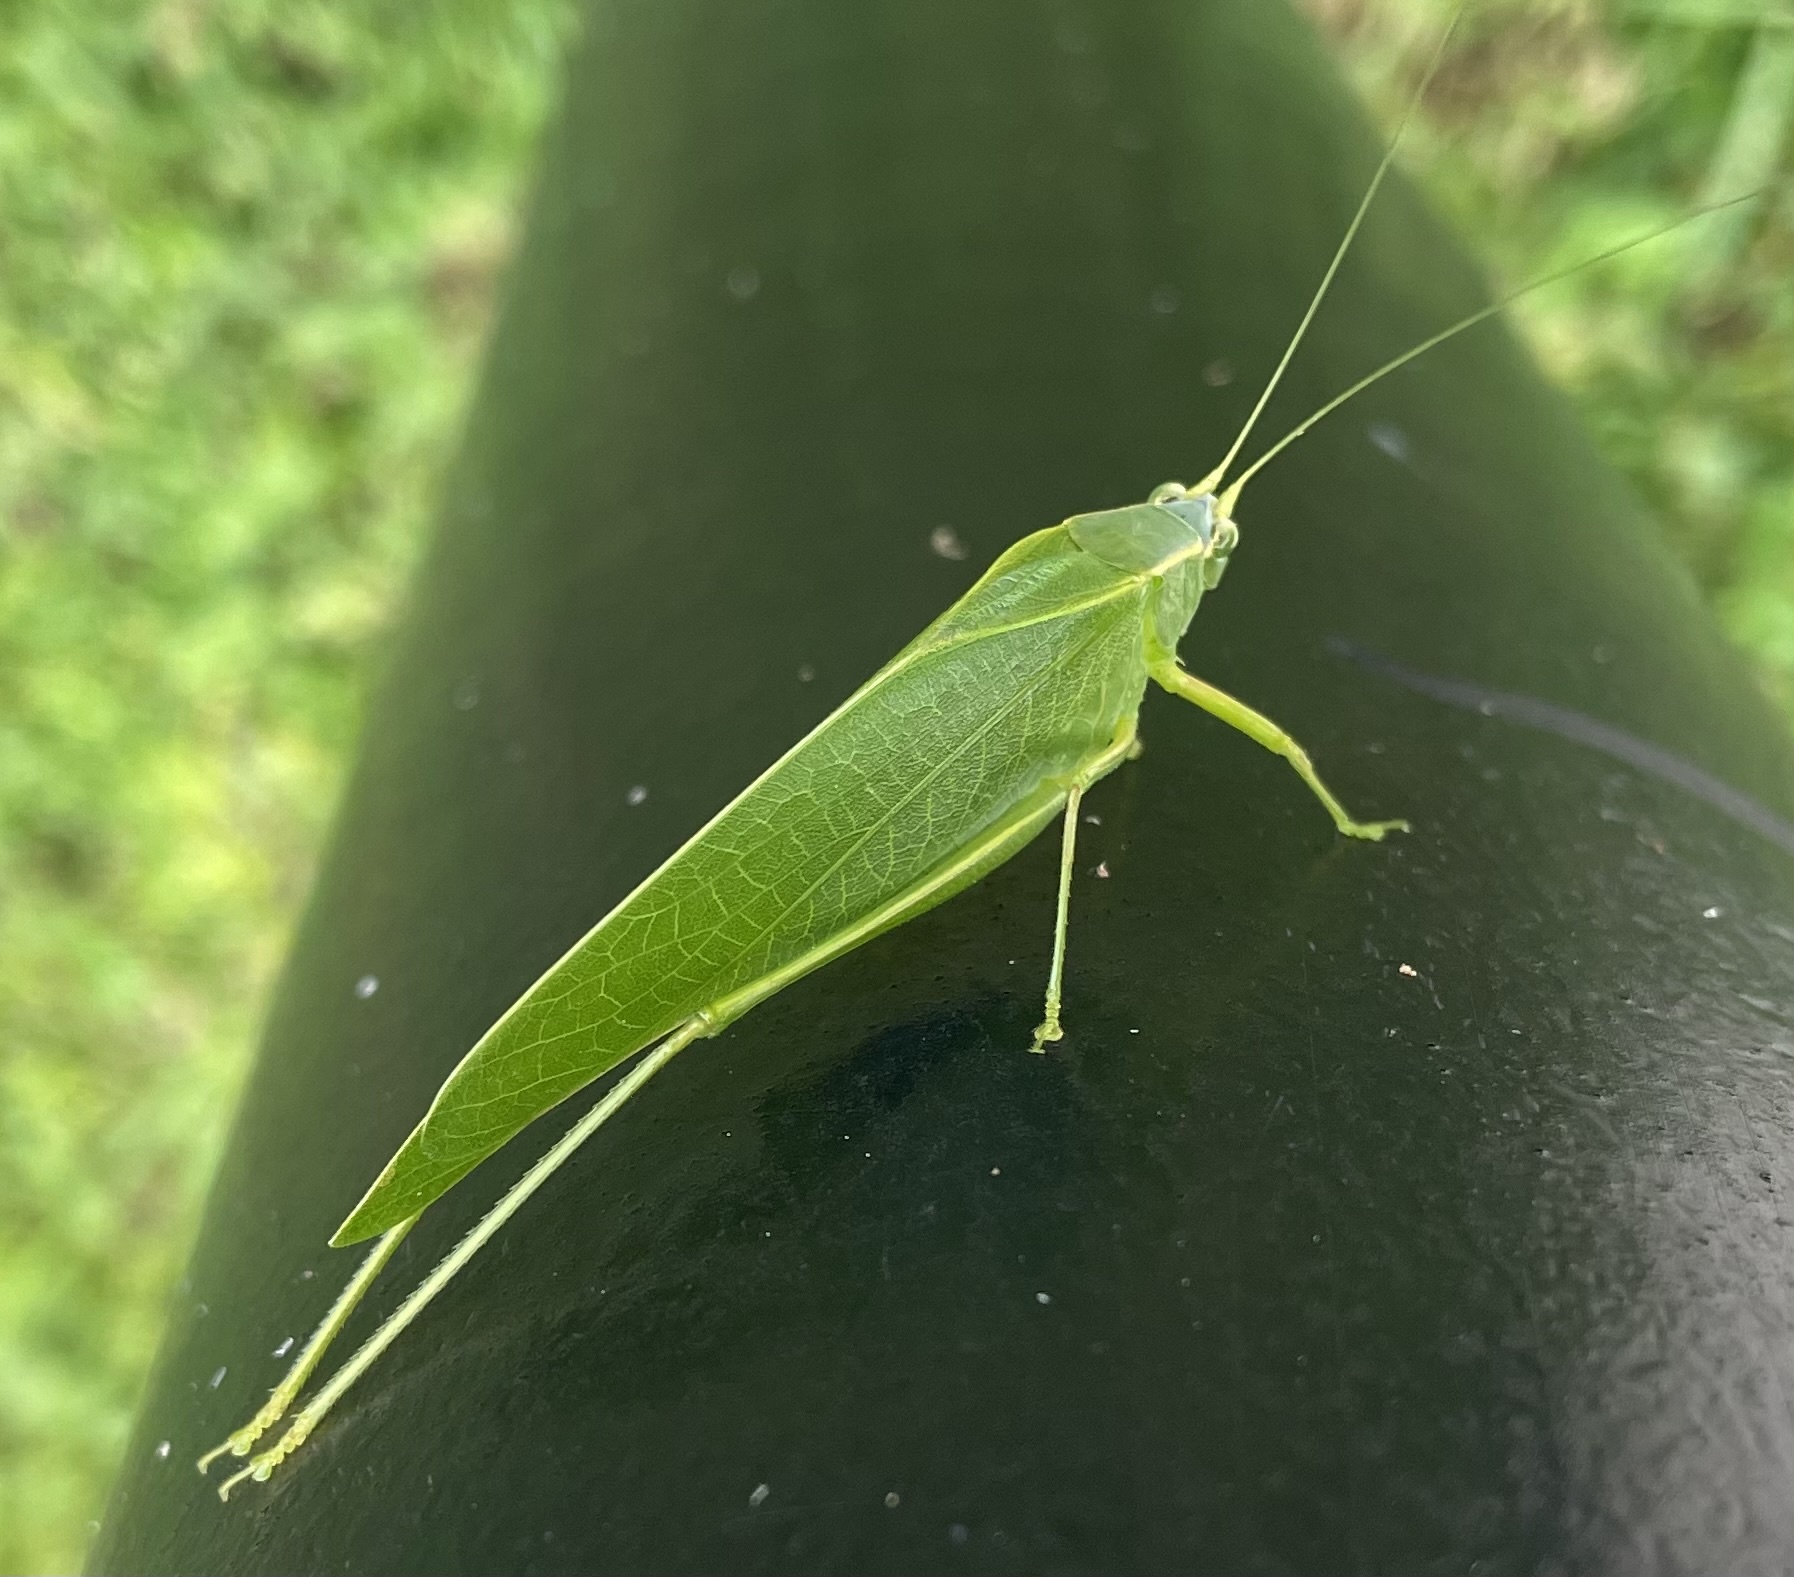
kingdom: Animalia
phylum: Arthropoda
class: Insecta
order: Orthoptera
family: Tettigoniidae
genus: Turpilia
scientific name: Turpilia rostrata
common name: Narrow-beaked katydid
